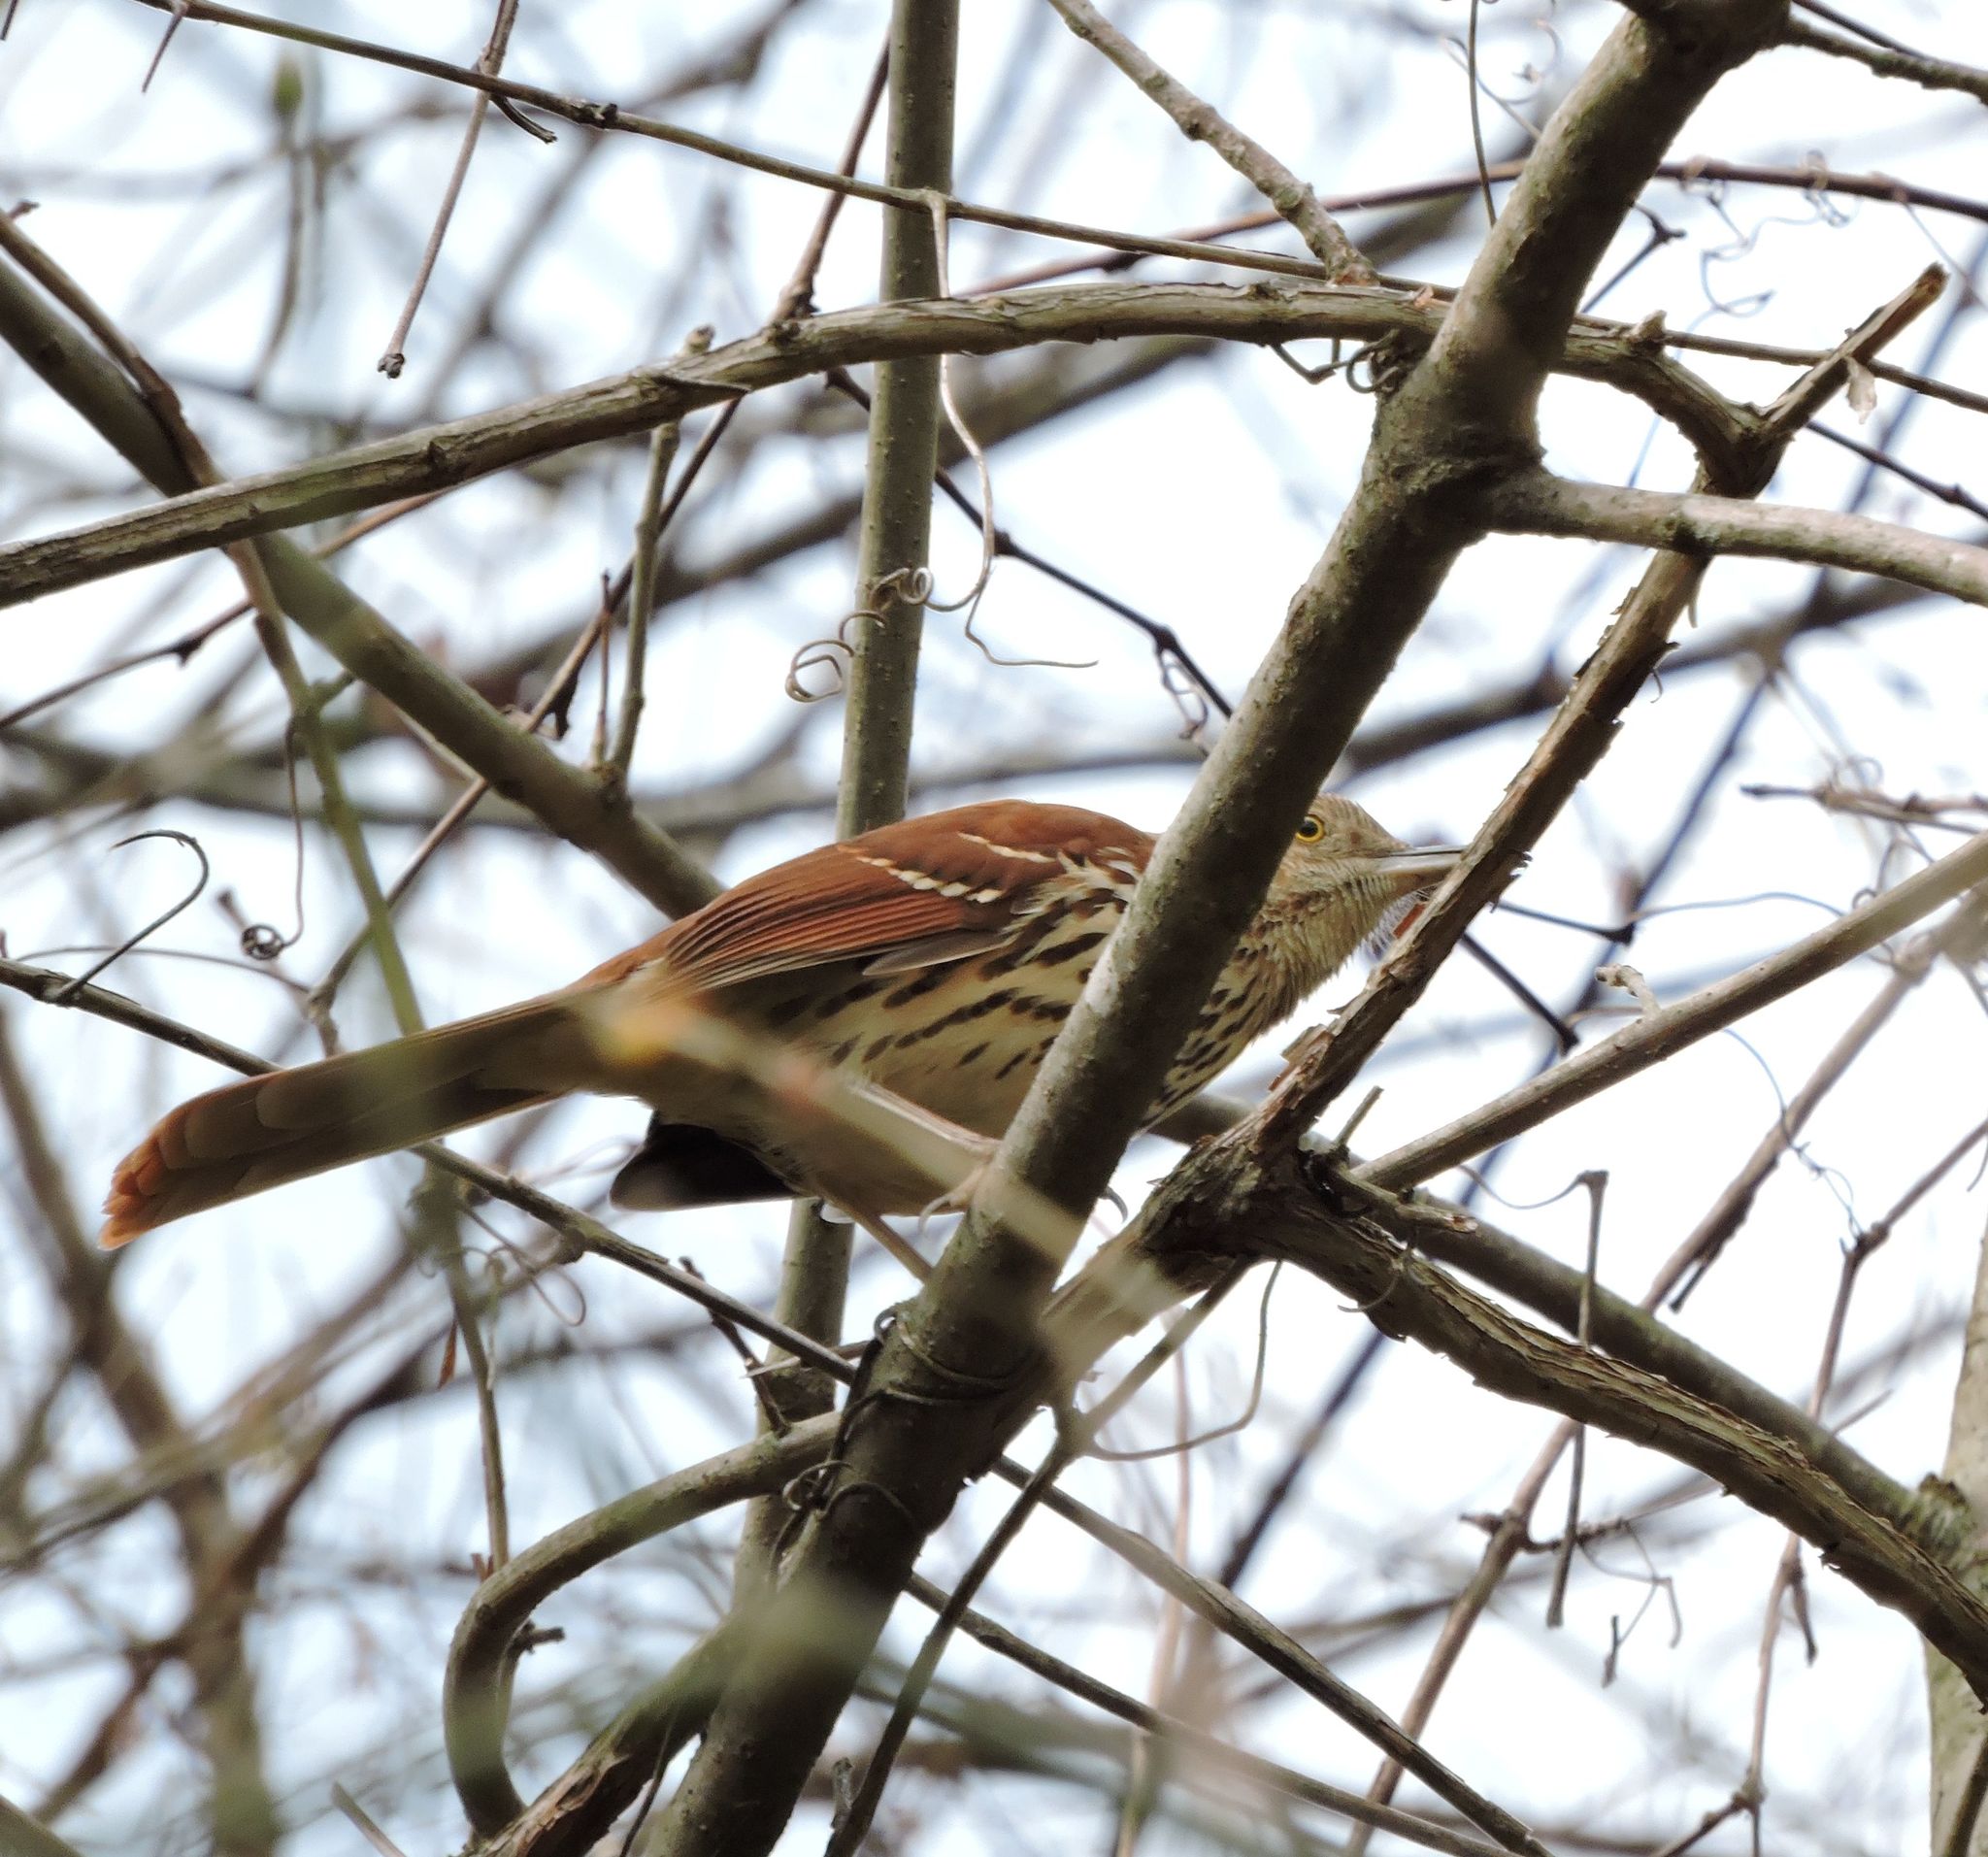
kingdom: Animalia
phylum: Chordata
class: Aves
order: Passeriformes
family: Mimidae
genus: Toxostoma
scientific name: Toxostoma rufum
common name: Brown thrasher
